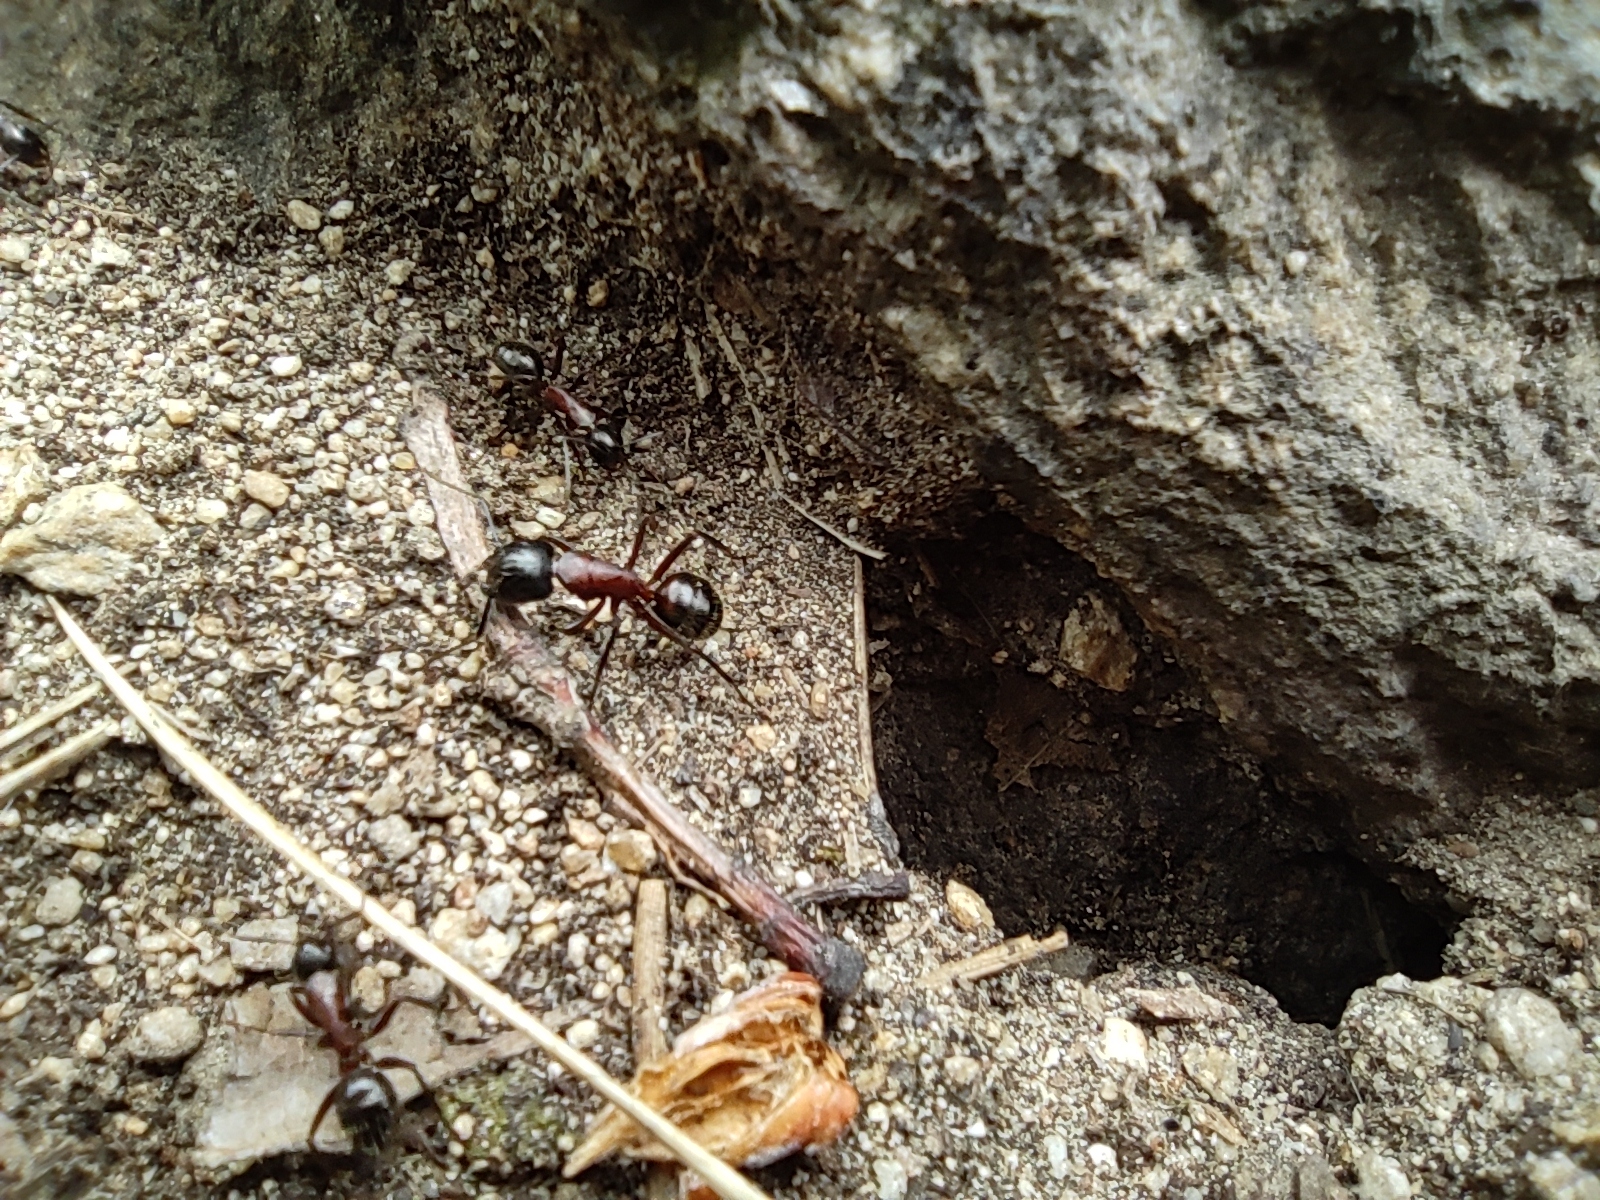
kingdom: Animalia
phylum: Arthropoda
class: Insecta
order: Hymenoptera
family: Formicidae
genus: Camponotus
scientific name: Camponotus ligniperdus
